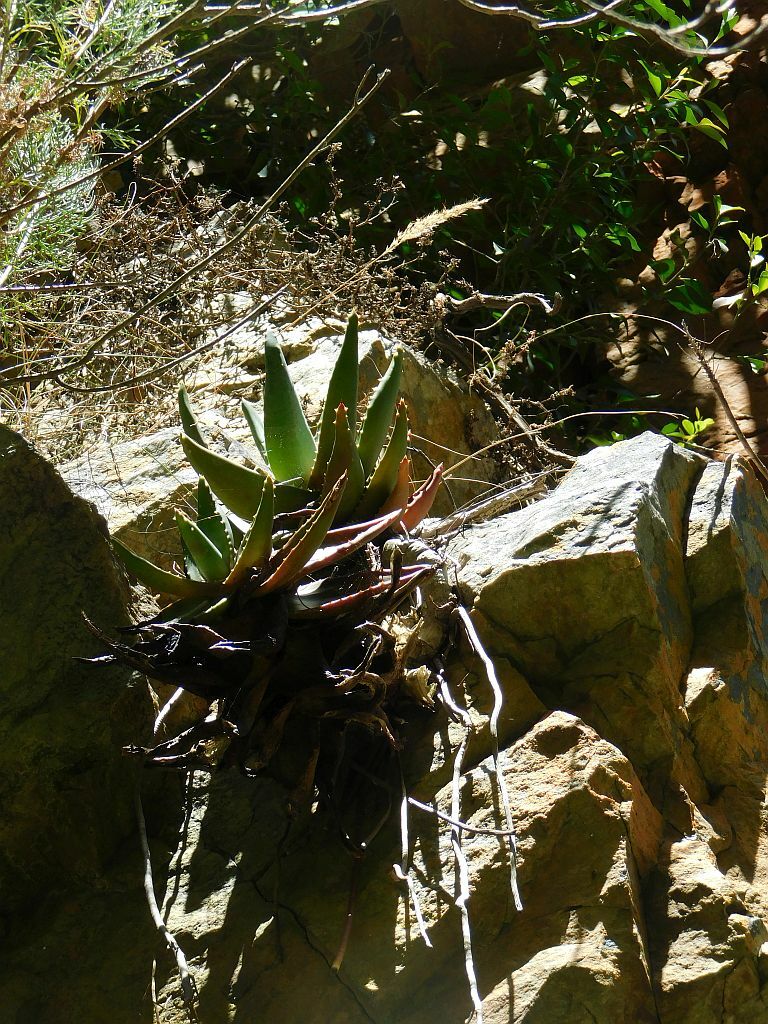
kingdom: Plantae
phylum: Tracheophyta
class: Liliopsida
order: Asparagales
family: Asphodelaceae
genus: Aloe
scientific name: Aloe perfoliata
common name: Mitra aloe
